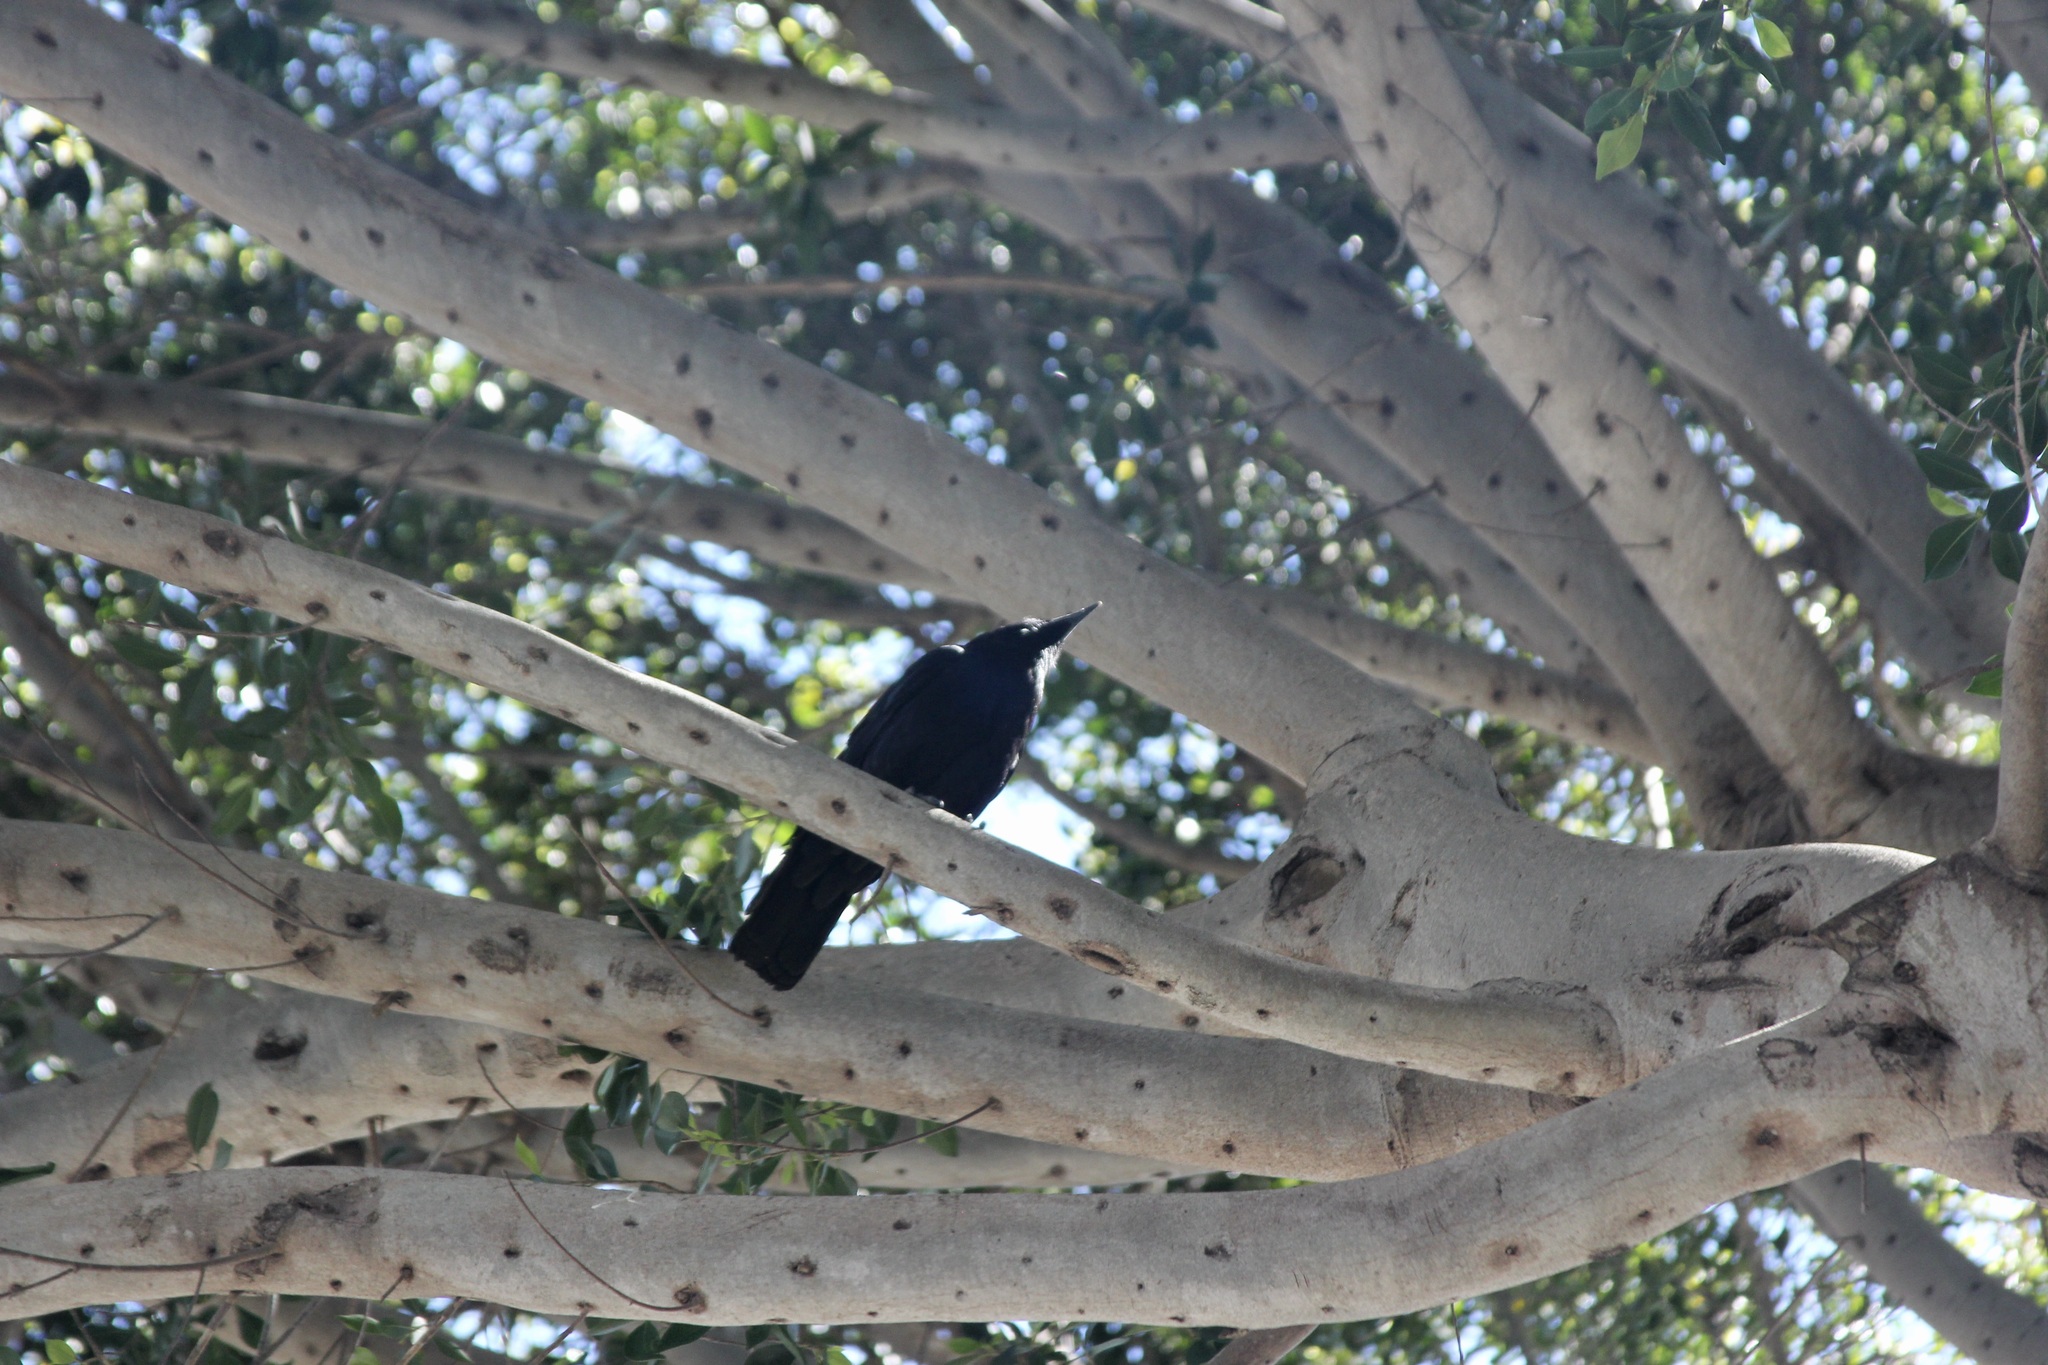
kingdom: Animalia
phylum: Chordata
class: Aves
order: Passeriformes
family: Corvidae
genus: Corvus
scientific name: Corvus brachyrhynchos
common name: American crow
